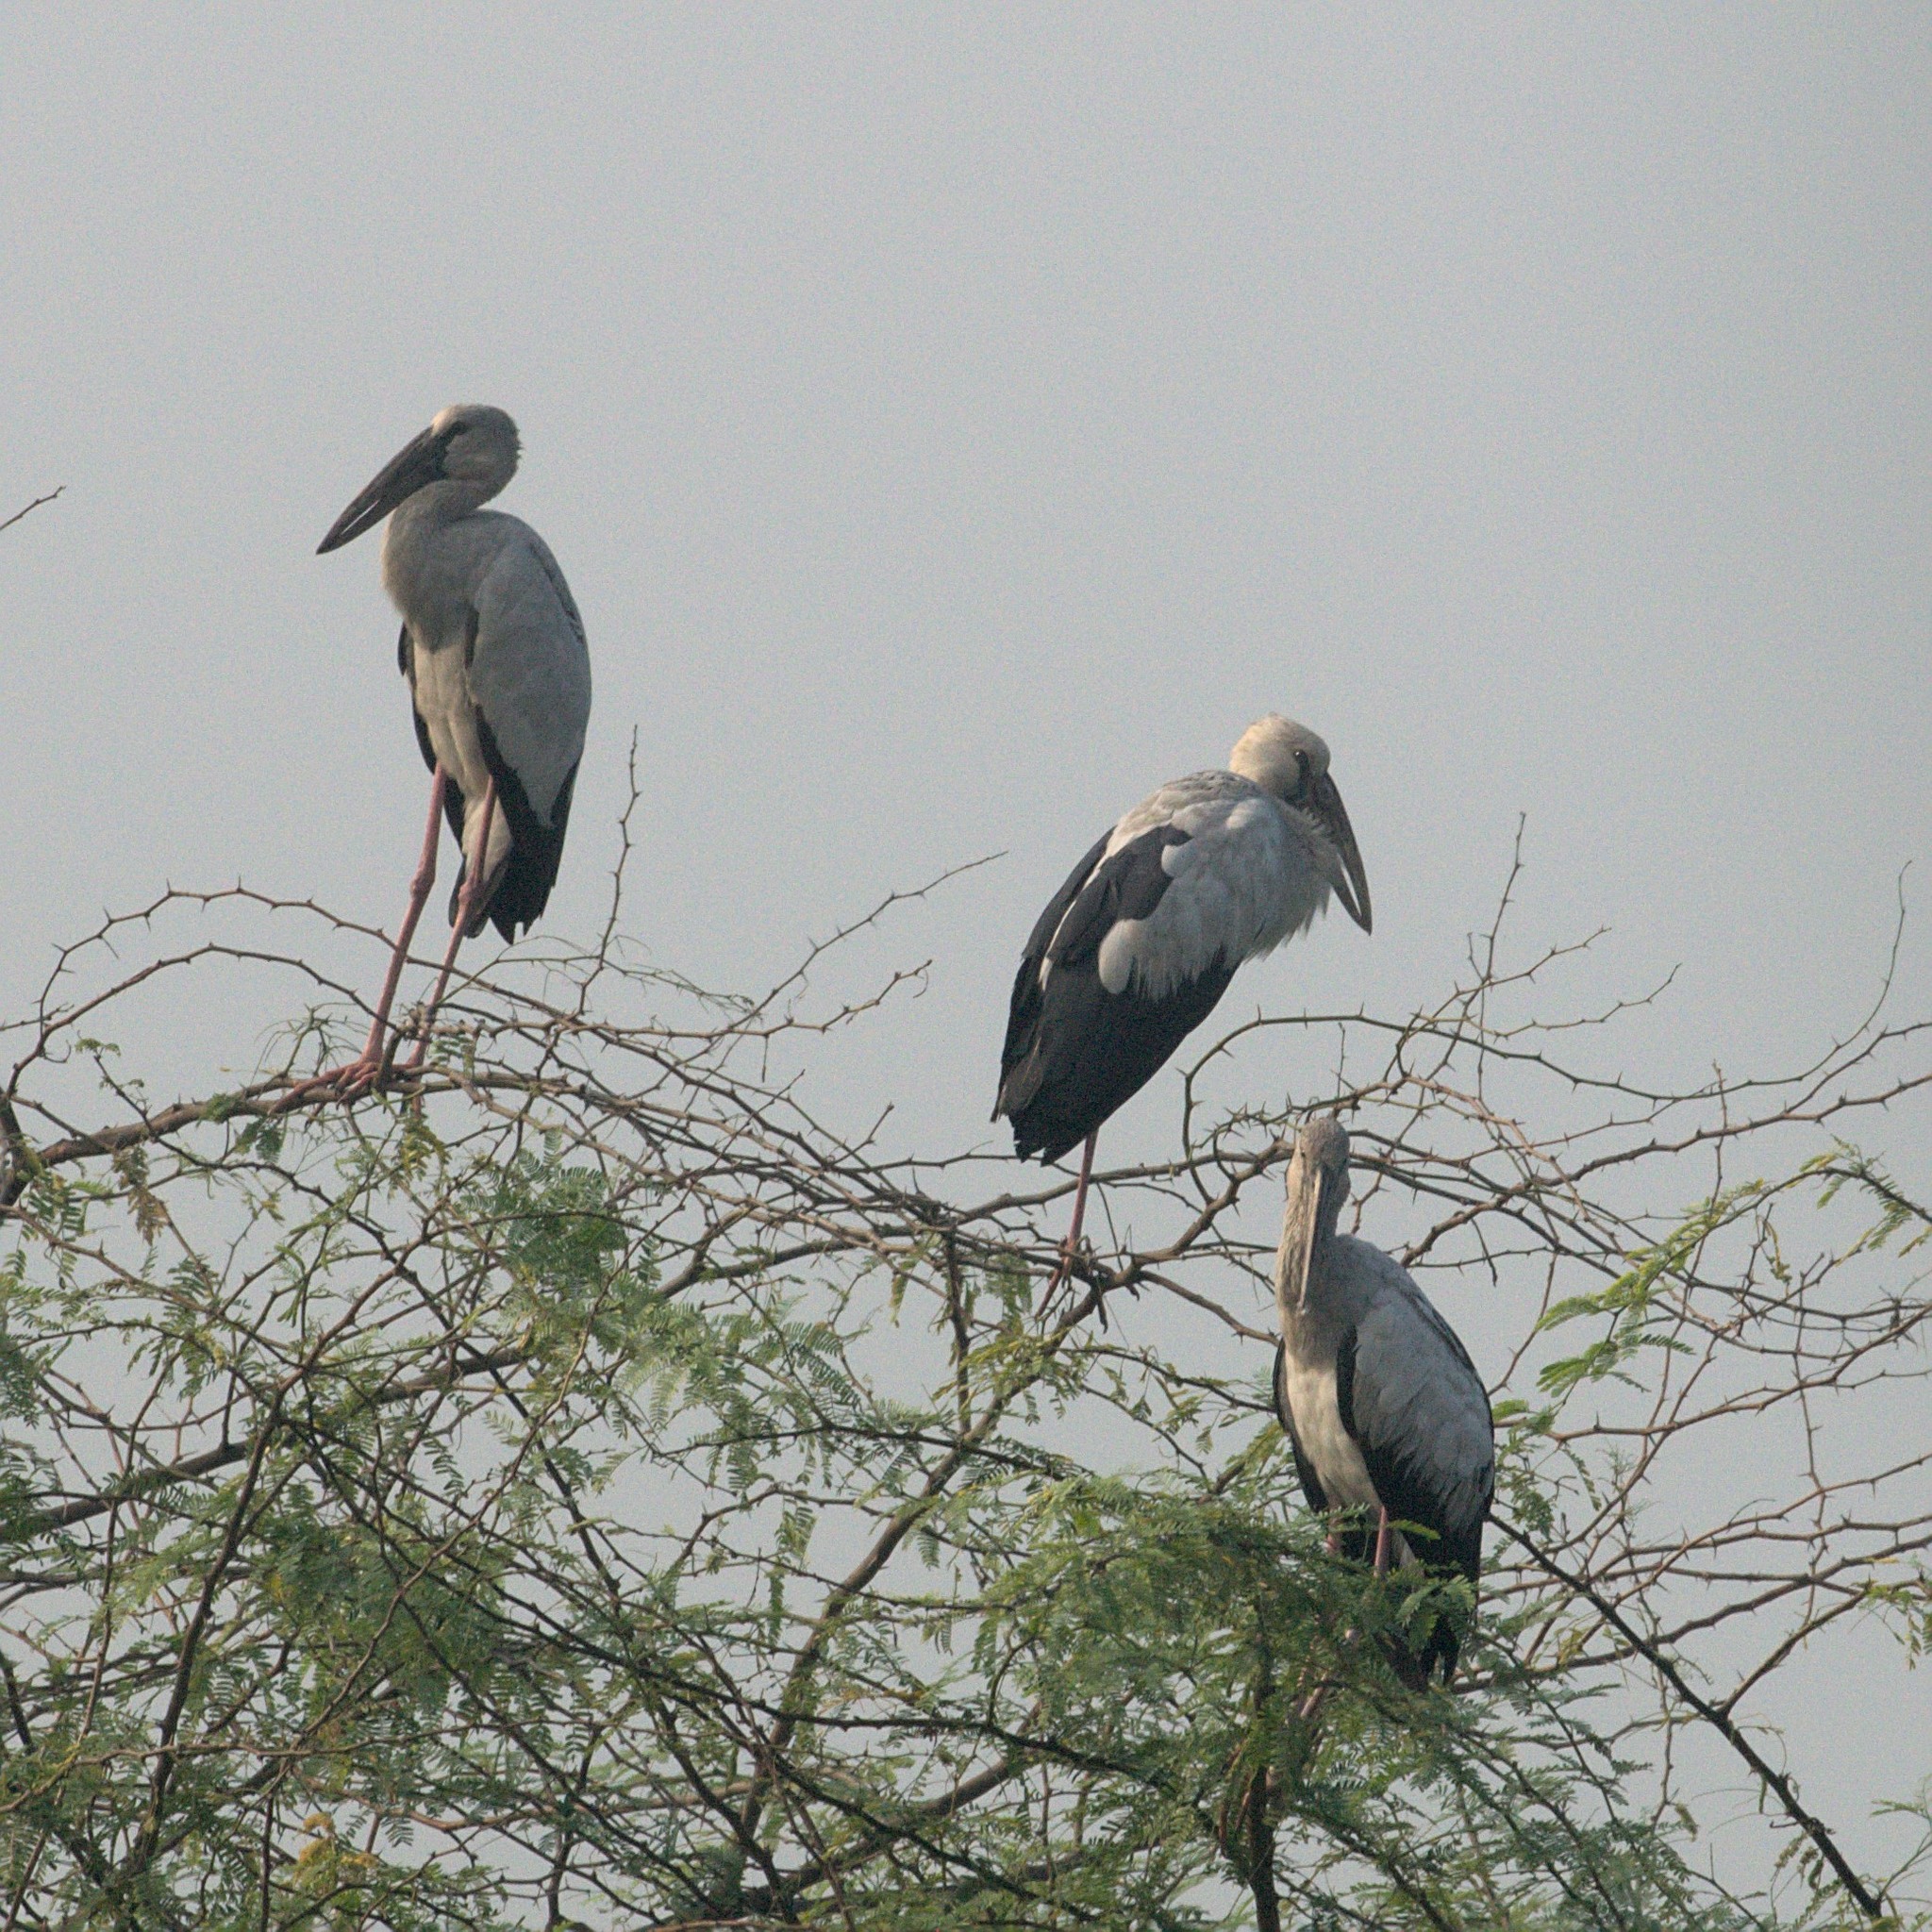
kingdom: Animalia
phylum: Chordata
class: Aves
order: Ciconiiformes
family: Ciconiidae
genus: Anastomus
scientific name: Anastomus oscitans
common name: Asian openbill
